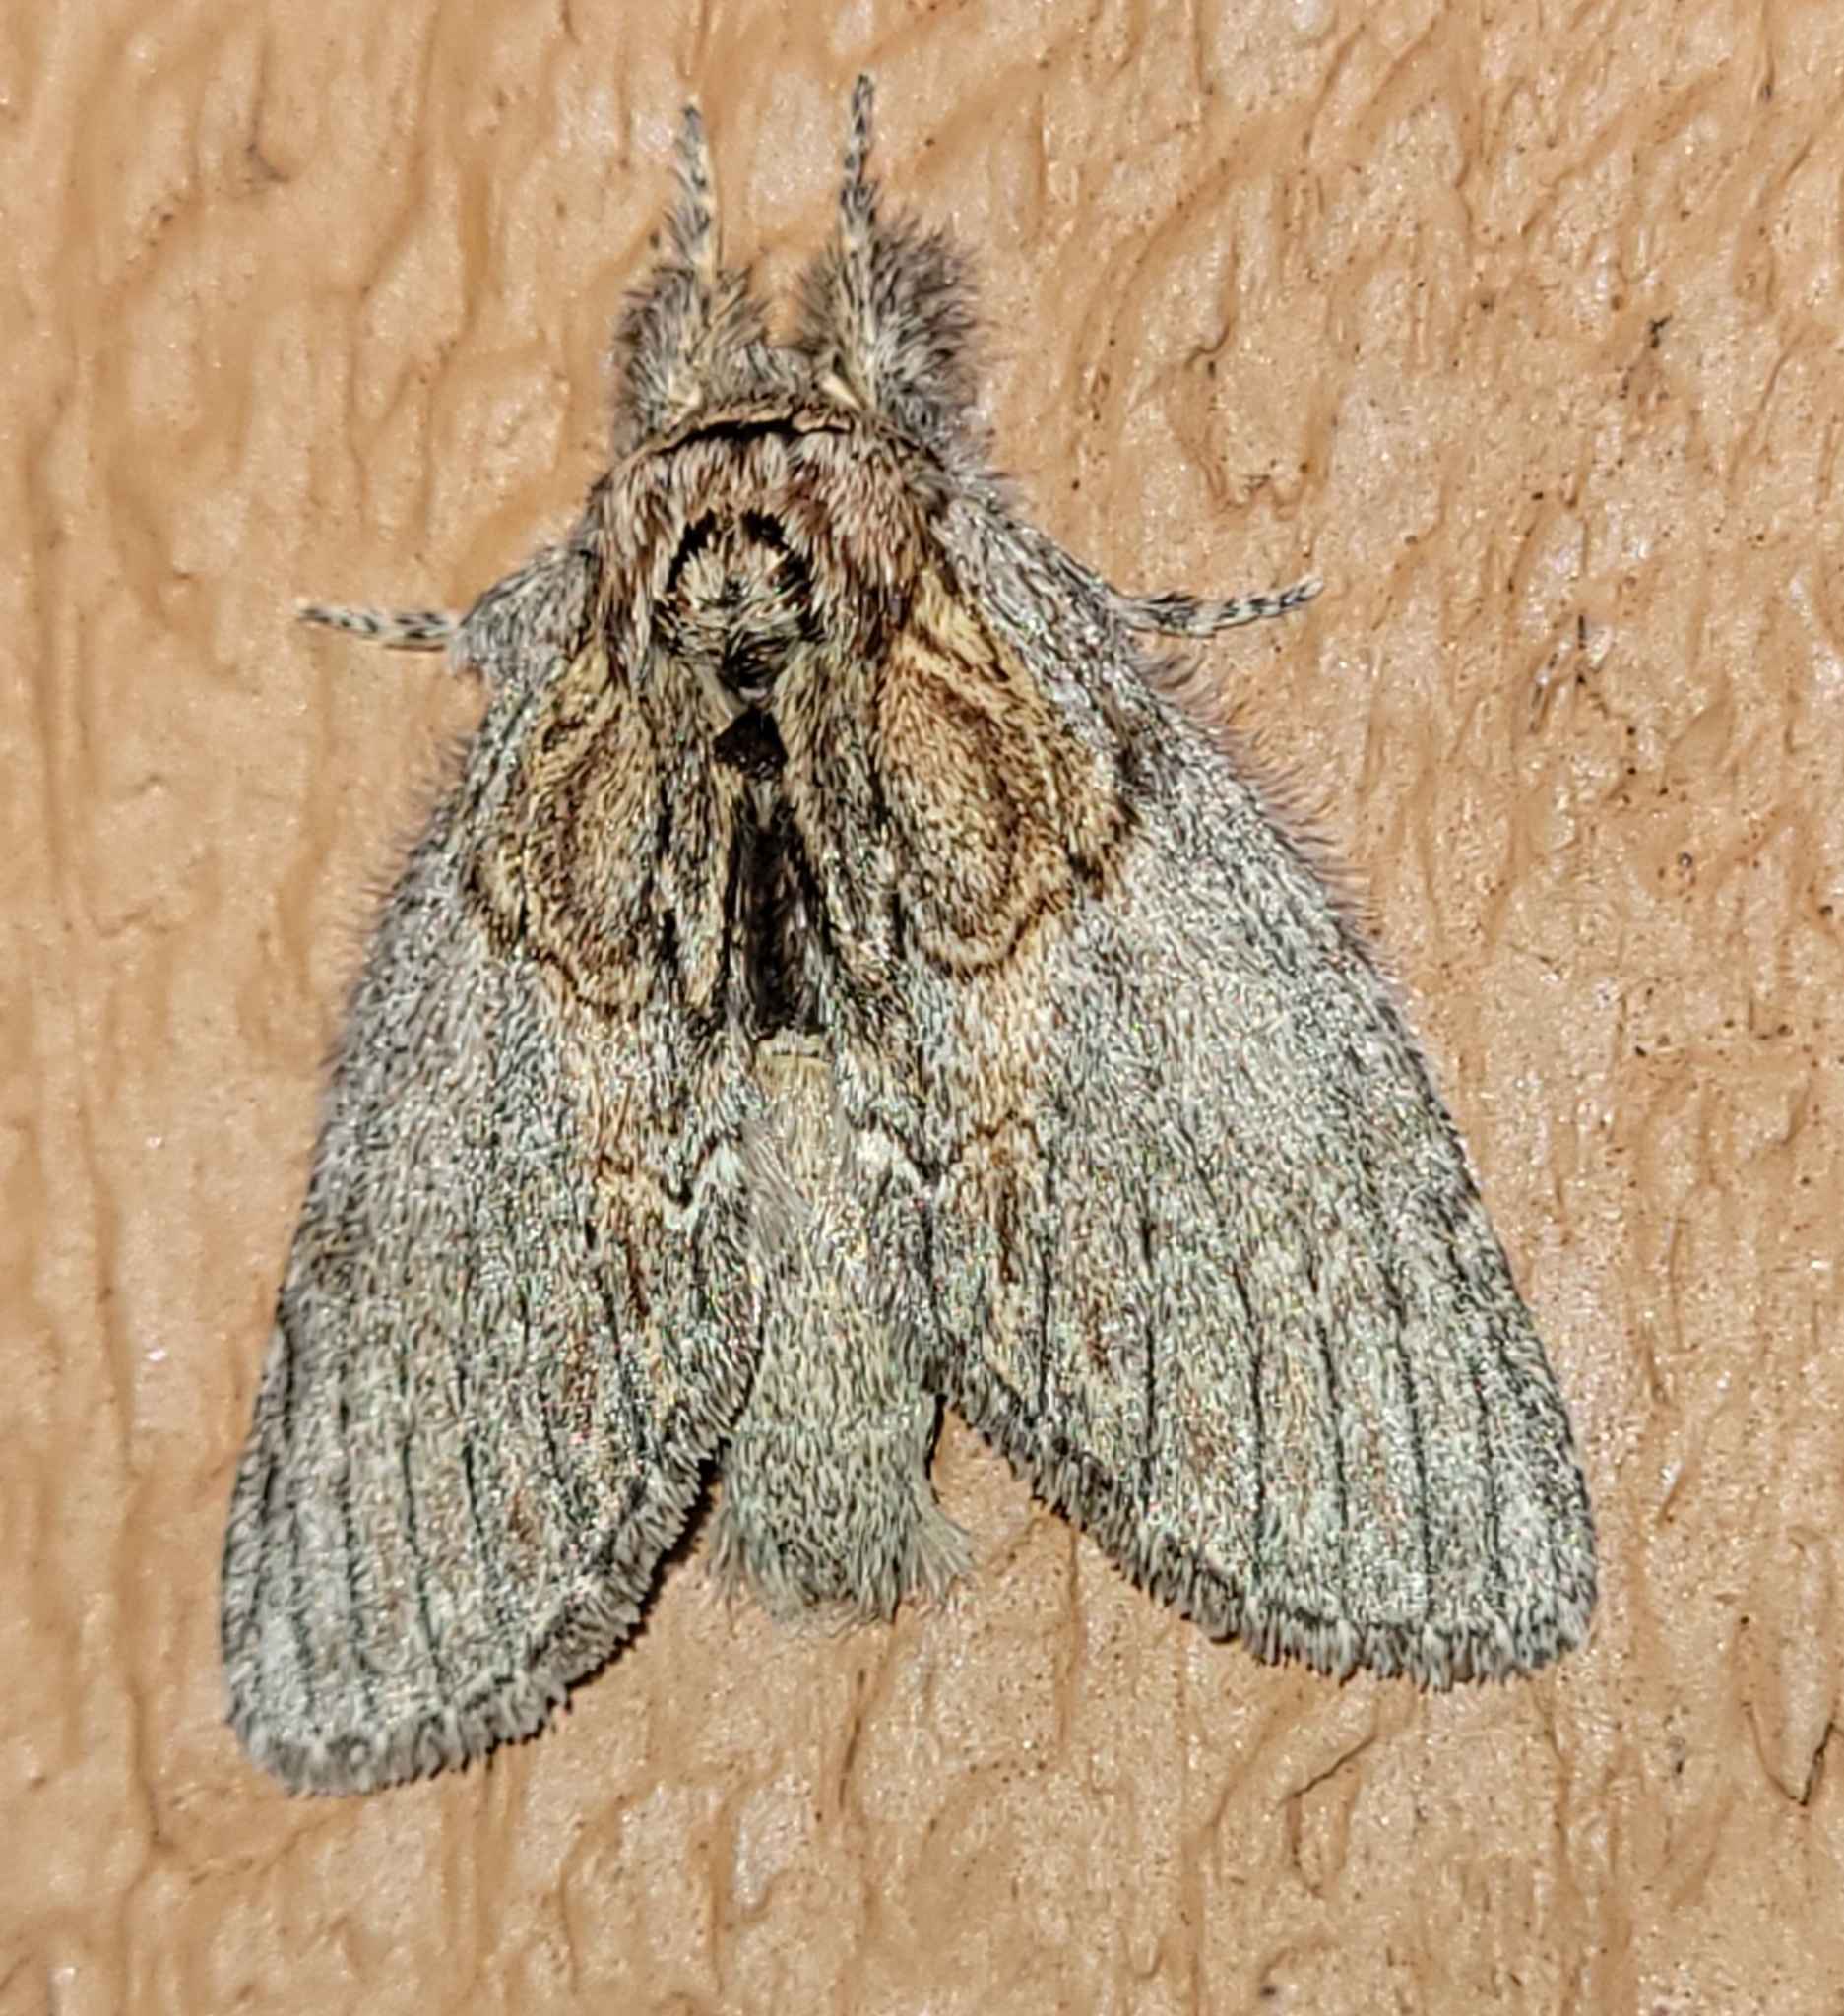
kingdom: Animalia
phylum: Arthropoda
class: Insecta
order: Lepidoptera
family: Notodontidae
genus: Peridea
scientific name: Peridea basitriens
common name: Oval-based prominent
